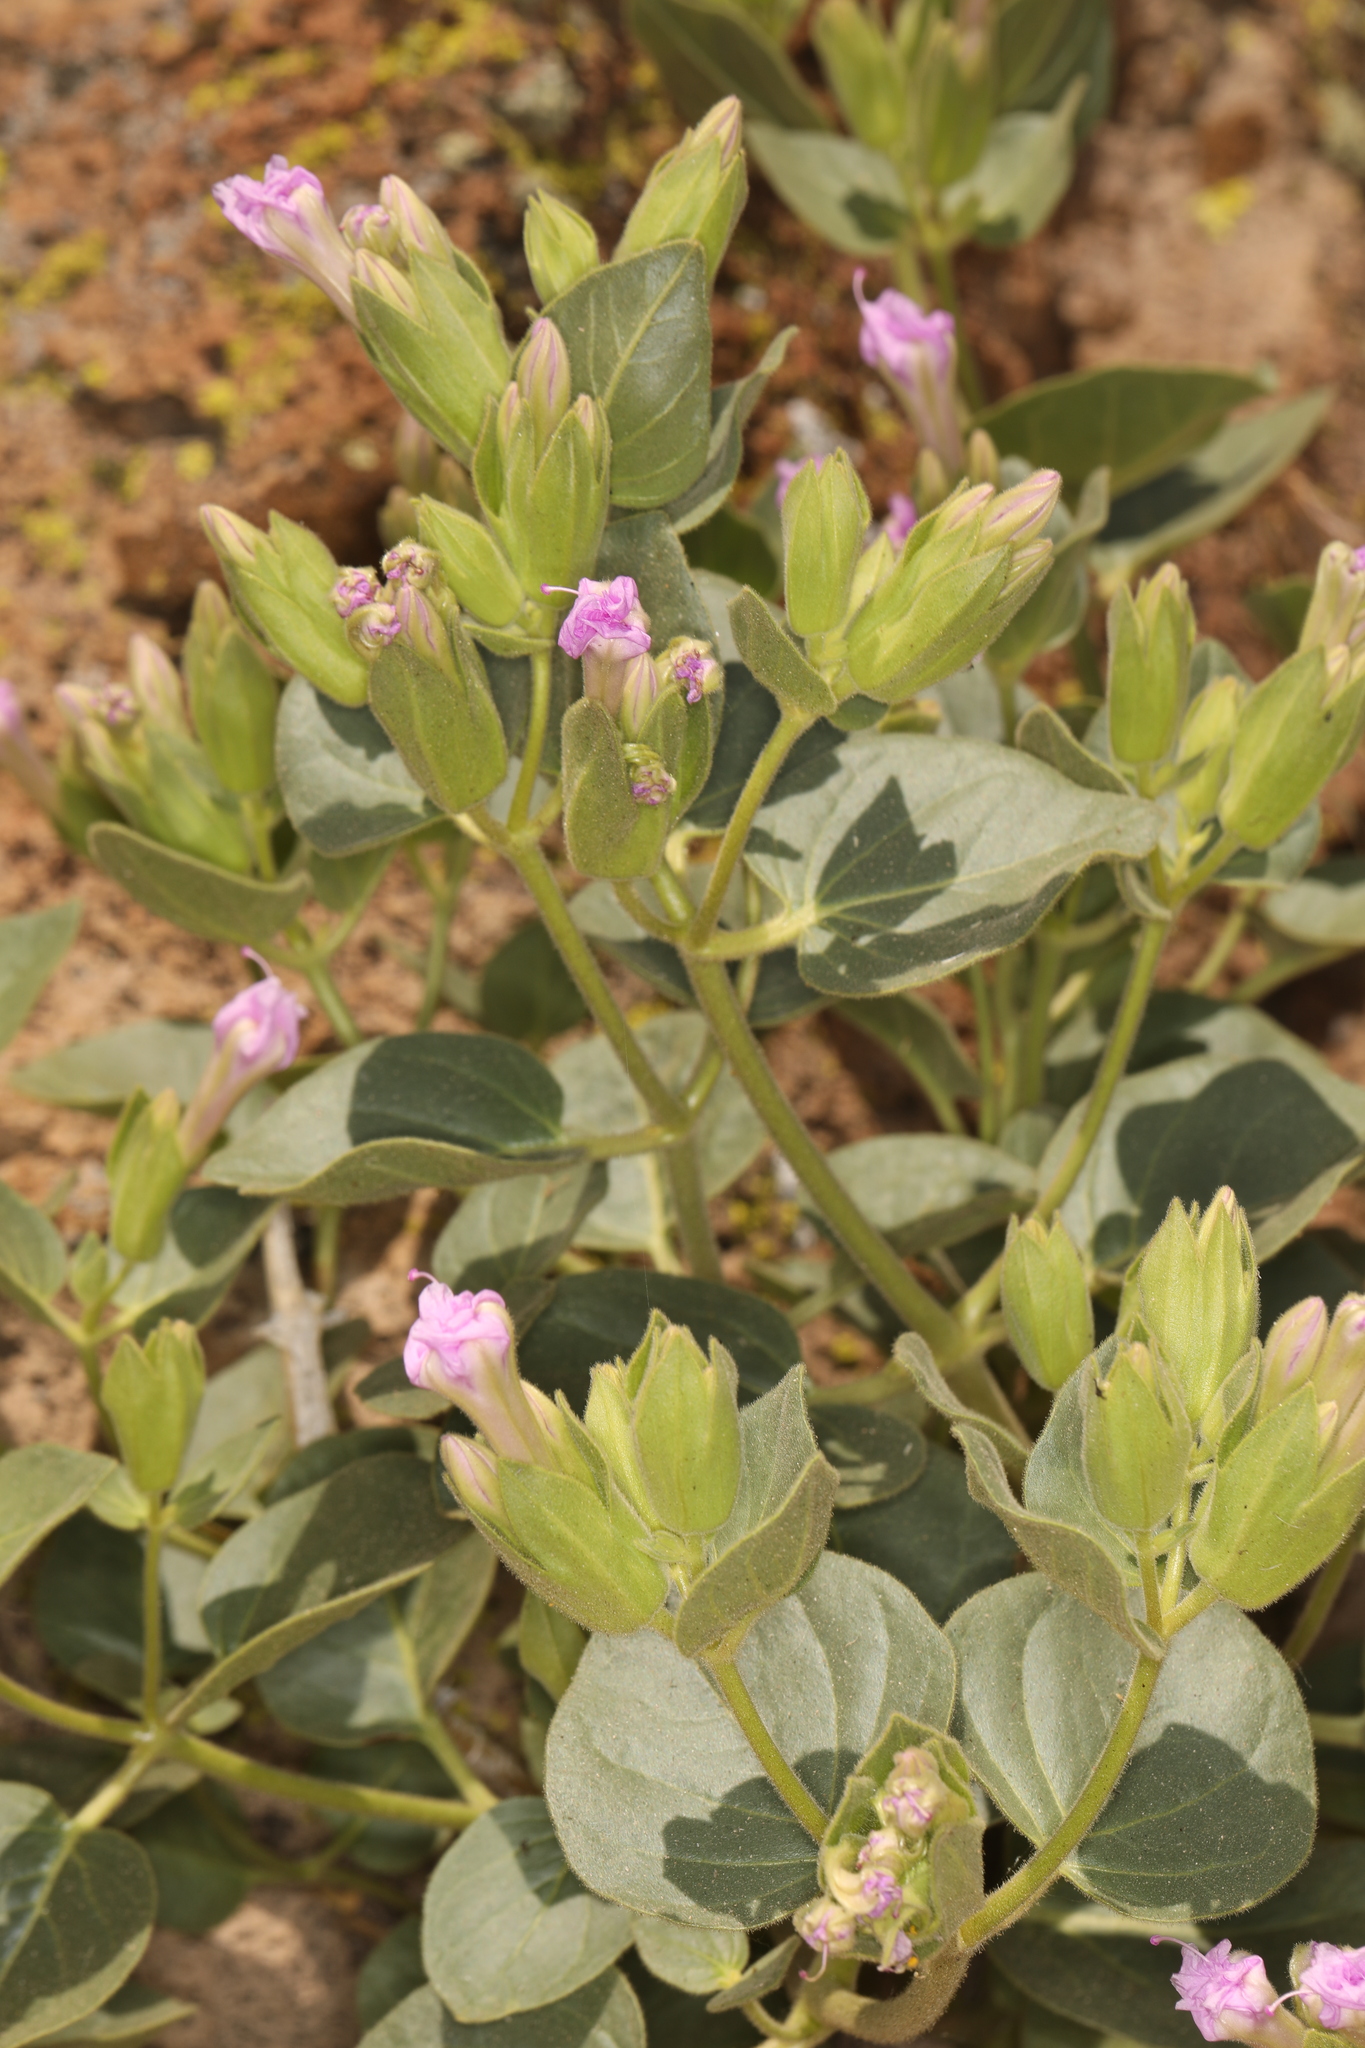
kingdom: Plantae
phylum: Tracheophyta
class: Magnoliopsida
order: Caryophyllales
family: Nyctaginaceae
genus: Mirabilis
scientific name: Mirabilis multiflora
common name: Froebel's four-o'clock
